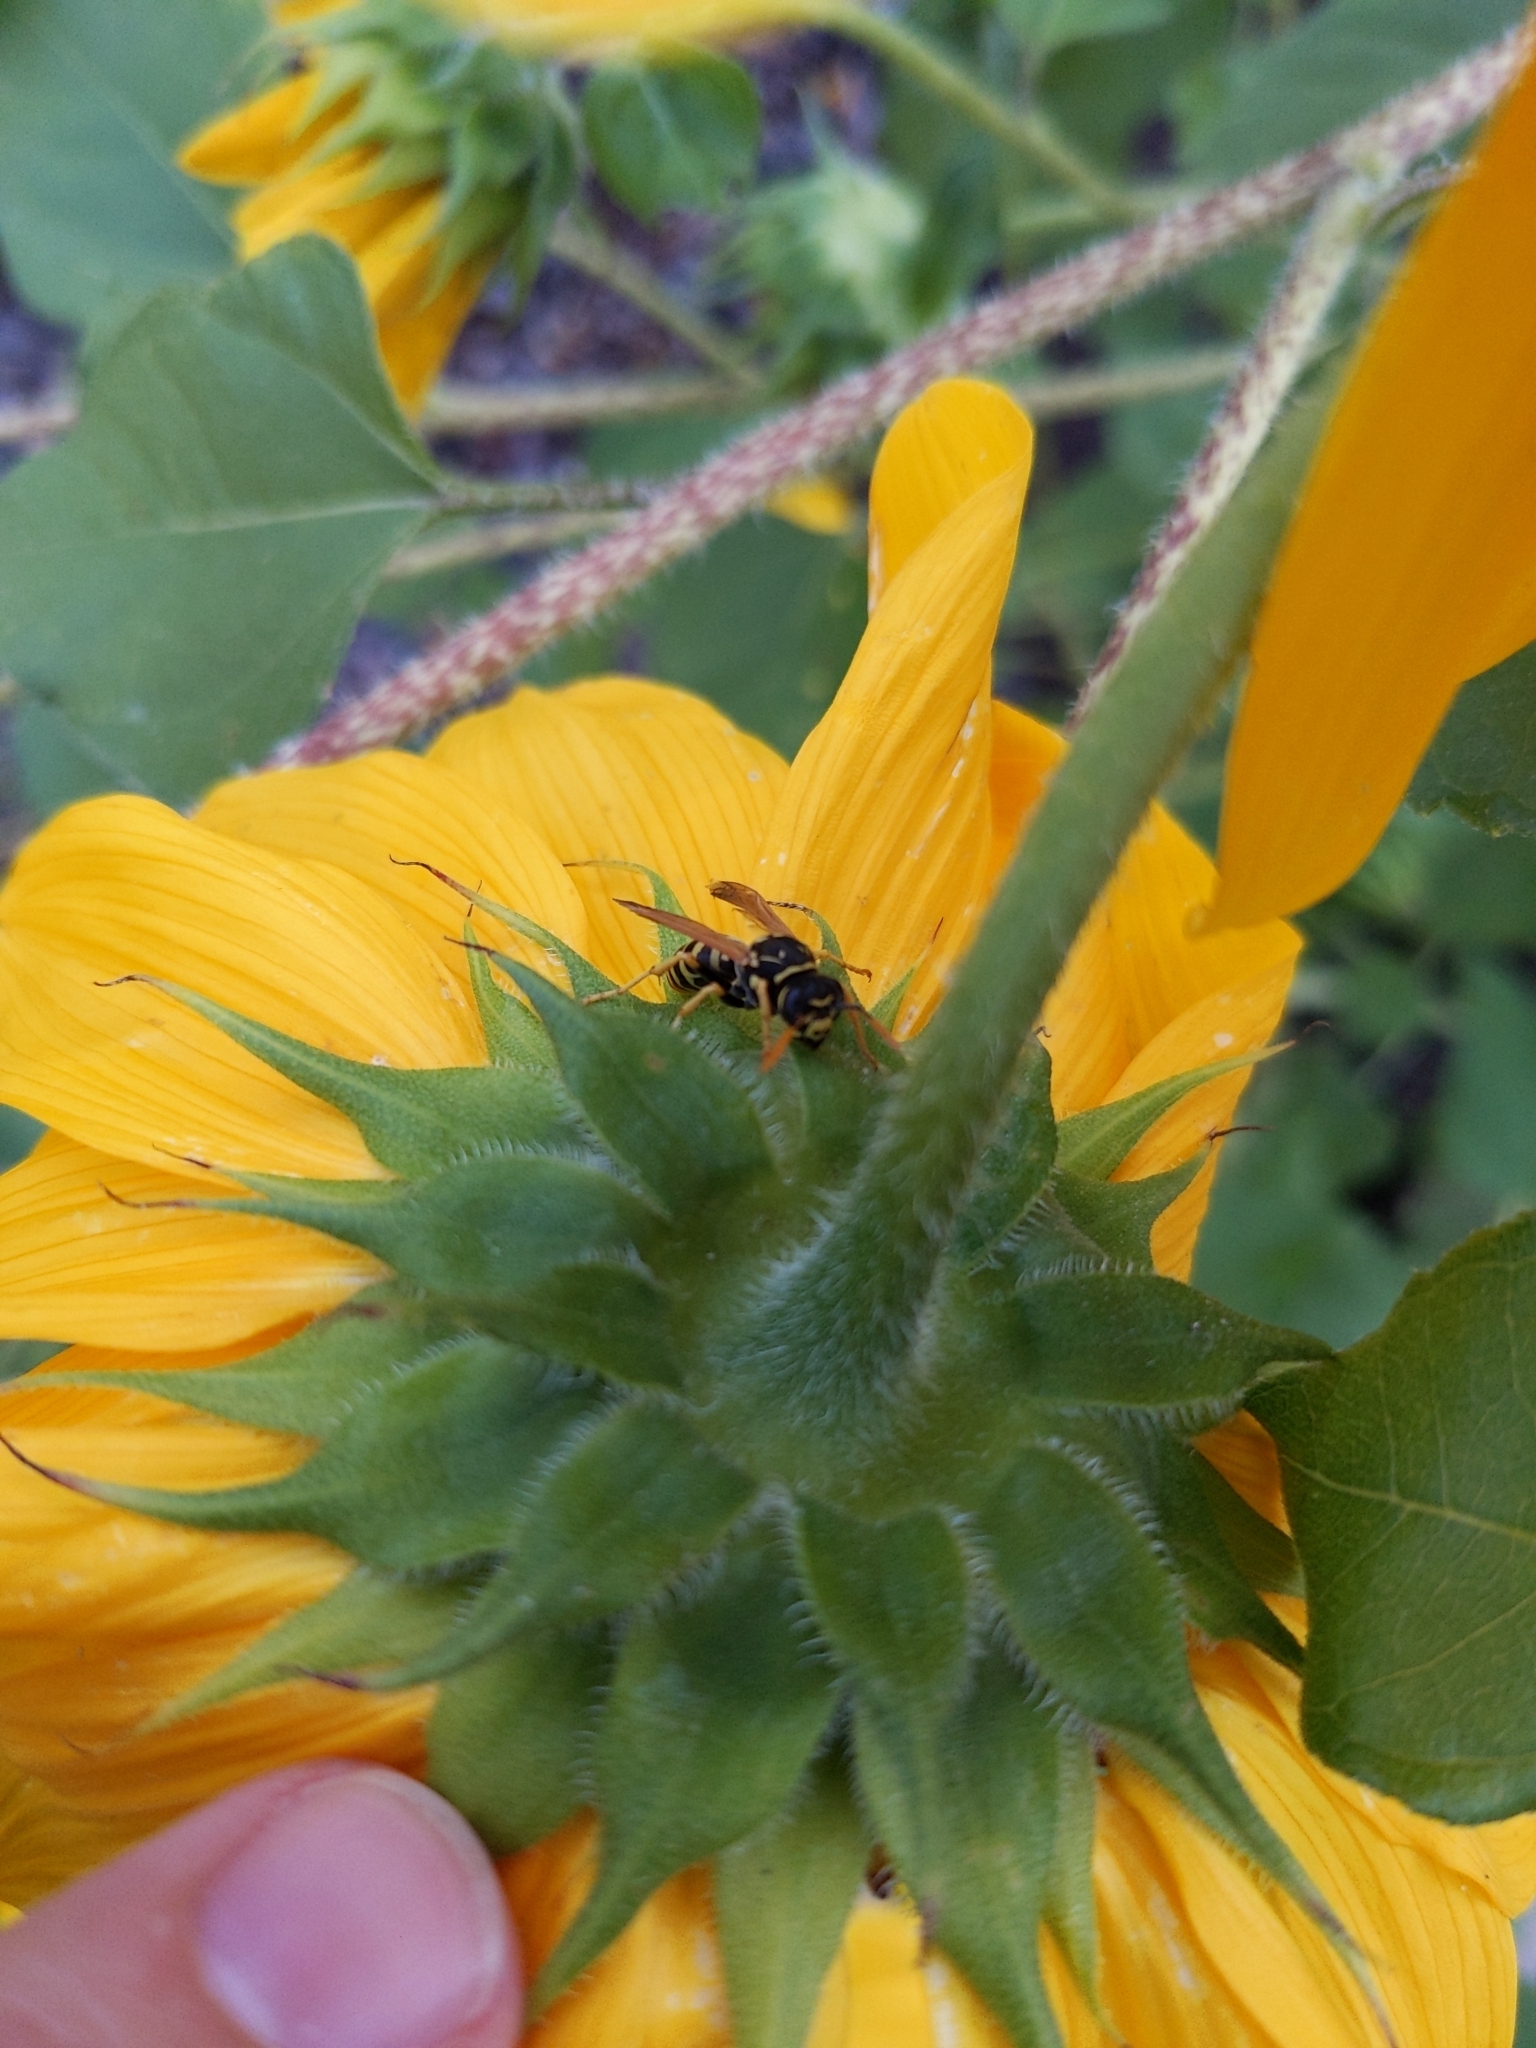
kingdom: Animalia
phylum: Arthropoda
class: Insecta
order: Hymenoptera
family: Eumenidae
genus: Polistes
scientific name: Polistes dominula
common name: Paper wasp
